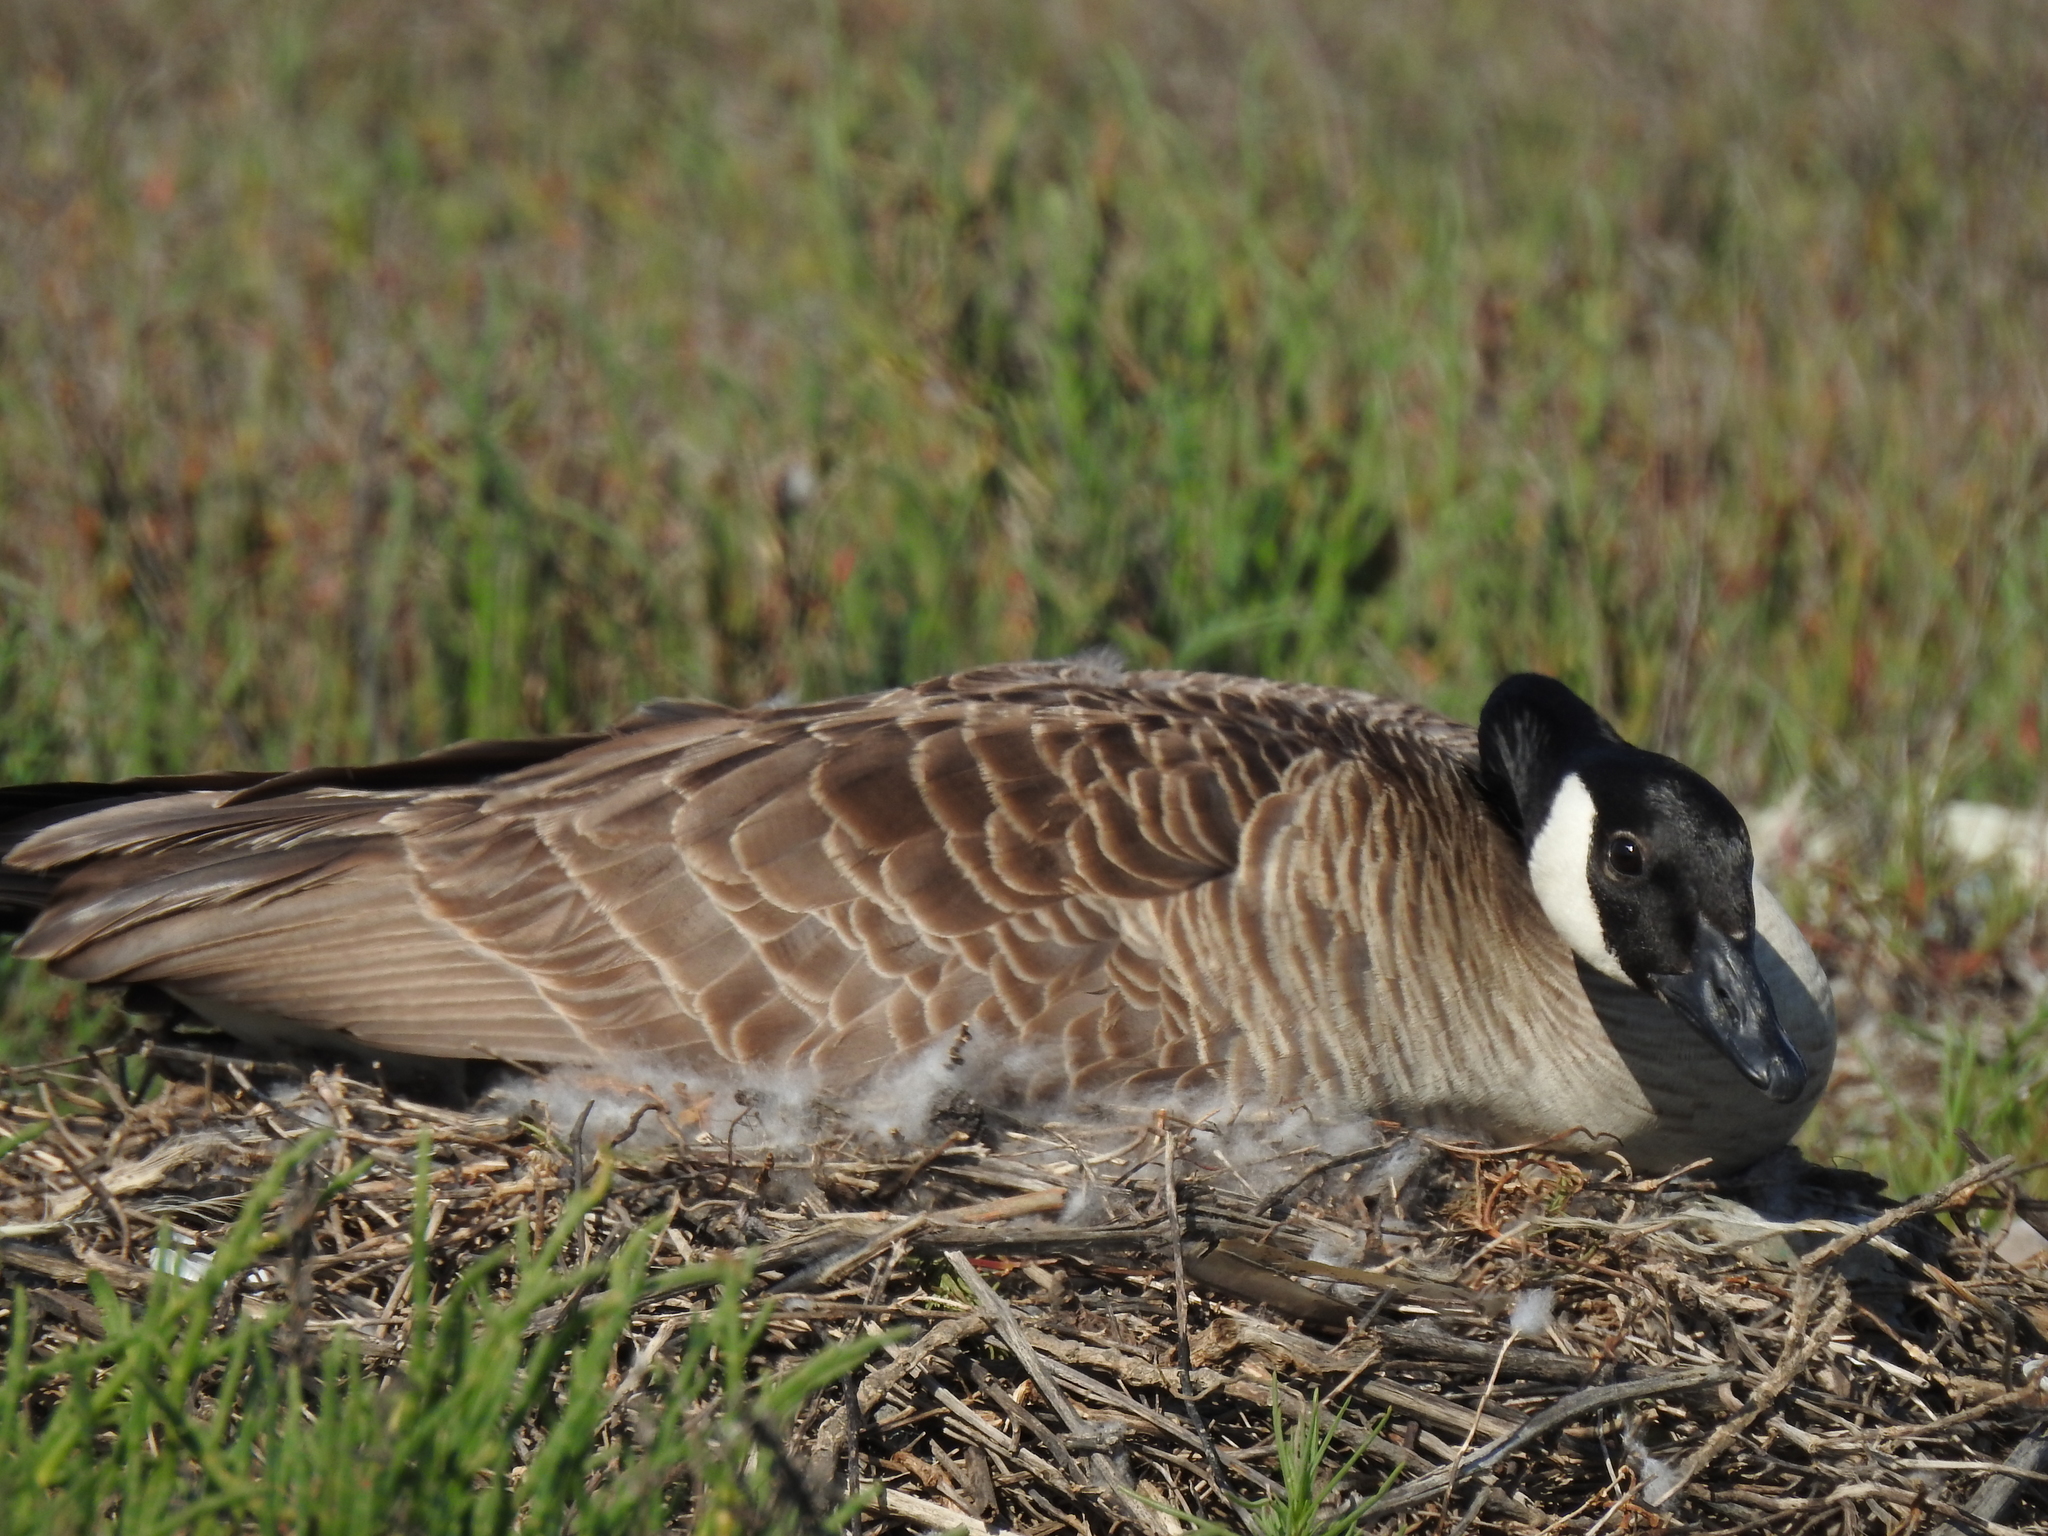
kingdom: Animalia
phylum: Chordata
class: Aves
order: Anseriformes
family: Anatidae
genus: Branta
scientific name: Branta canadensis
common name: Canada goose
